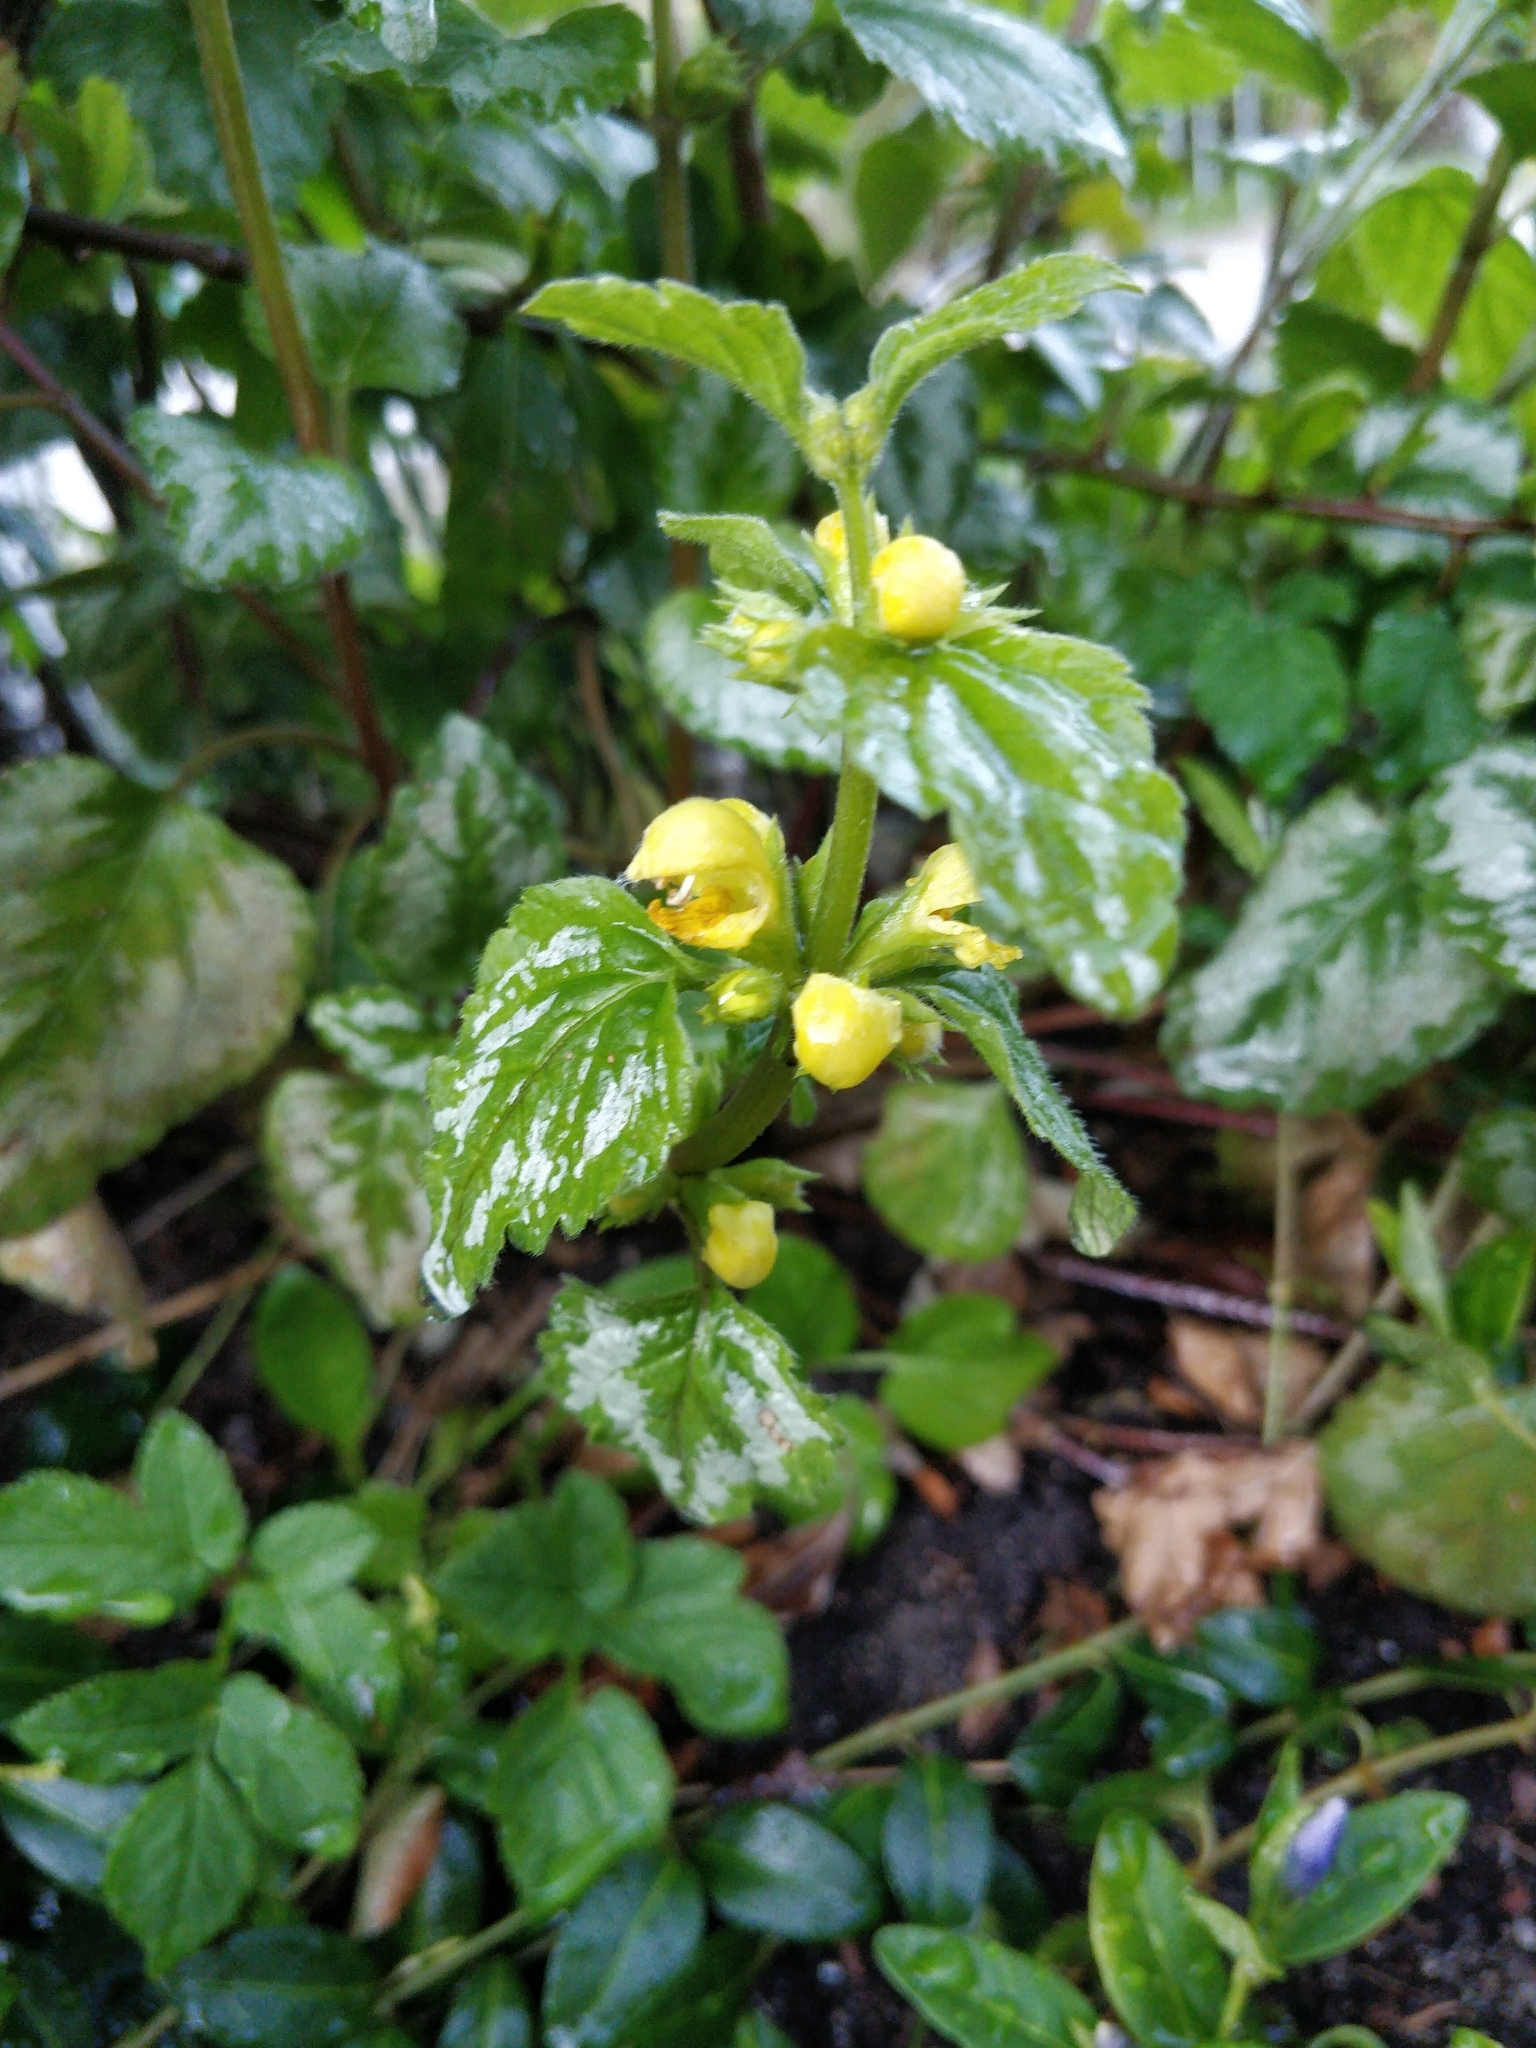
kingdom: Plantae
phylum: Tracheophyta
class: Magnoliopsida
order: Lamiales
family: Lamiaceae
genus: Lamium
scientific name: Lamium galeobdolon
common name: Yellow archangel
